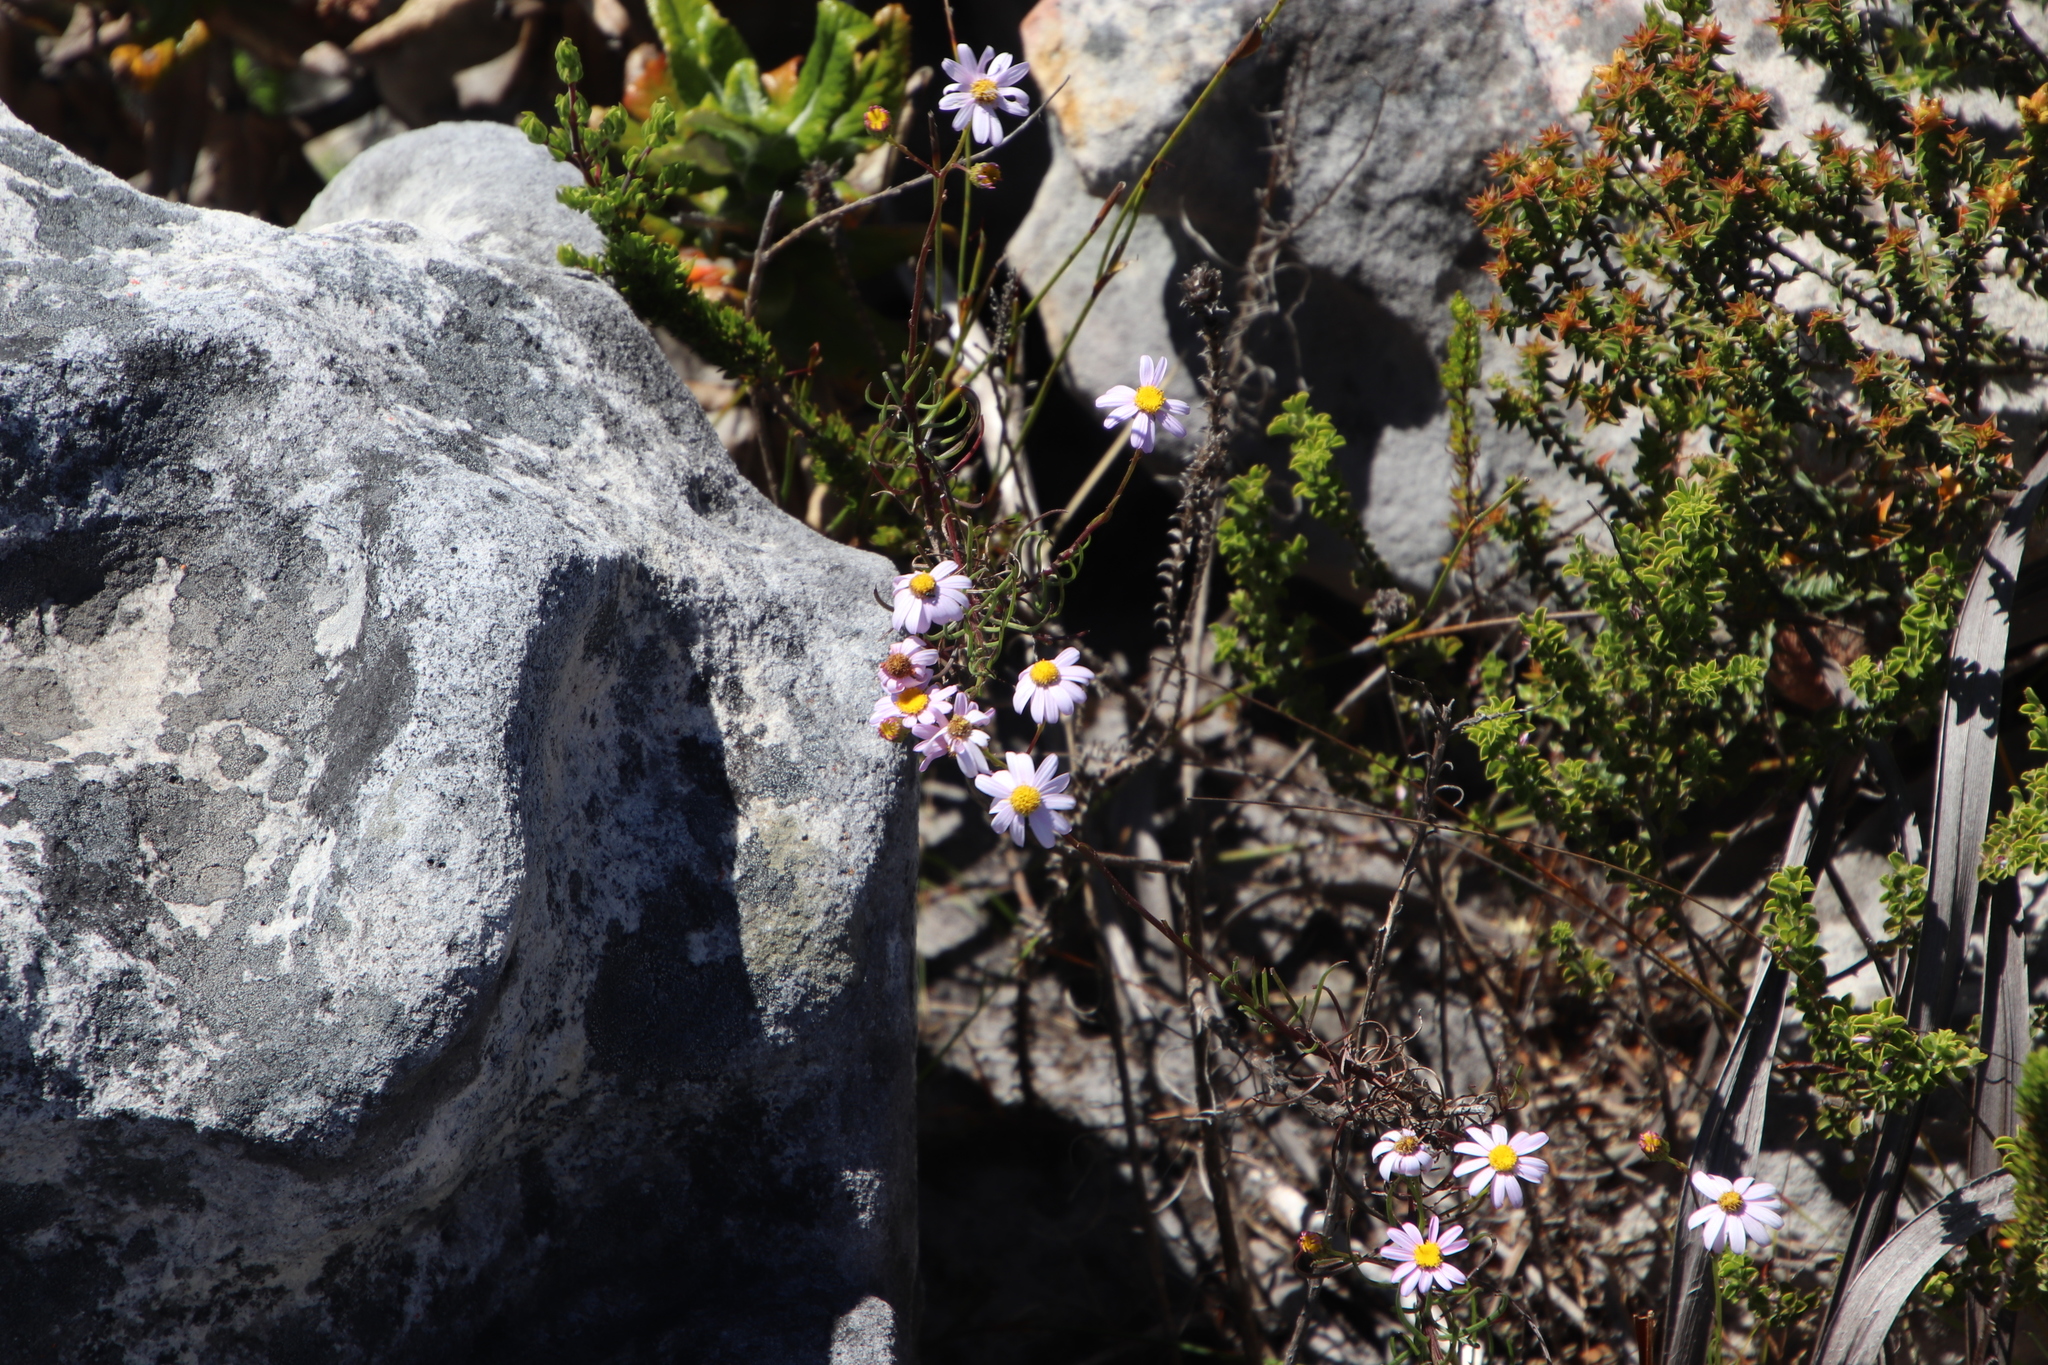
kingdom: Plantae
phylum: Tracheophyta
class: Magnoliopsida
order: Asterales
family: Asteraceae
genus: Senecio
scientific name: Senecio umbellatus
